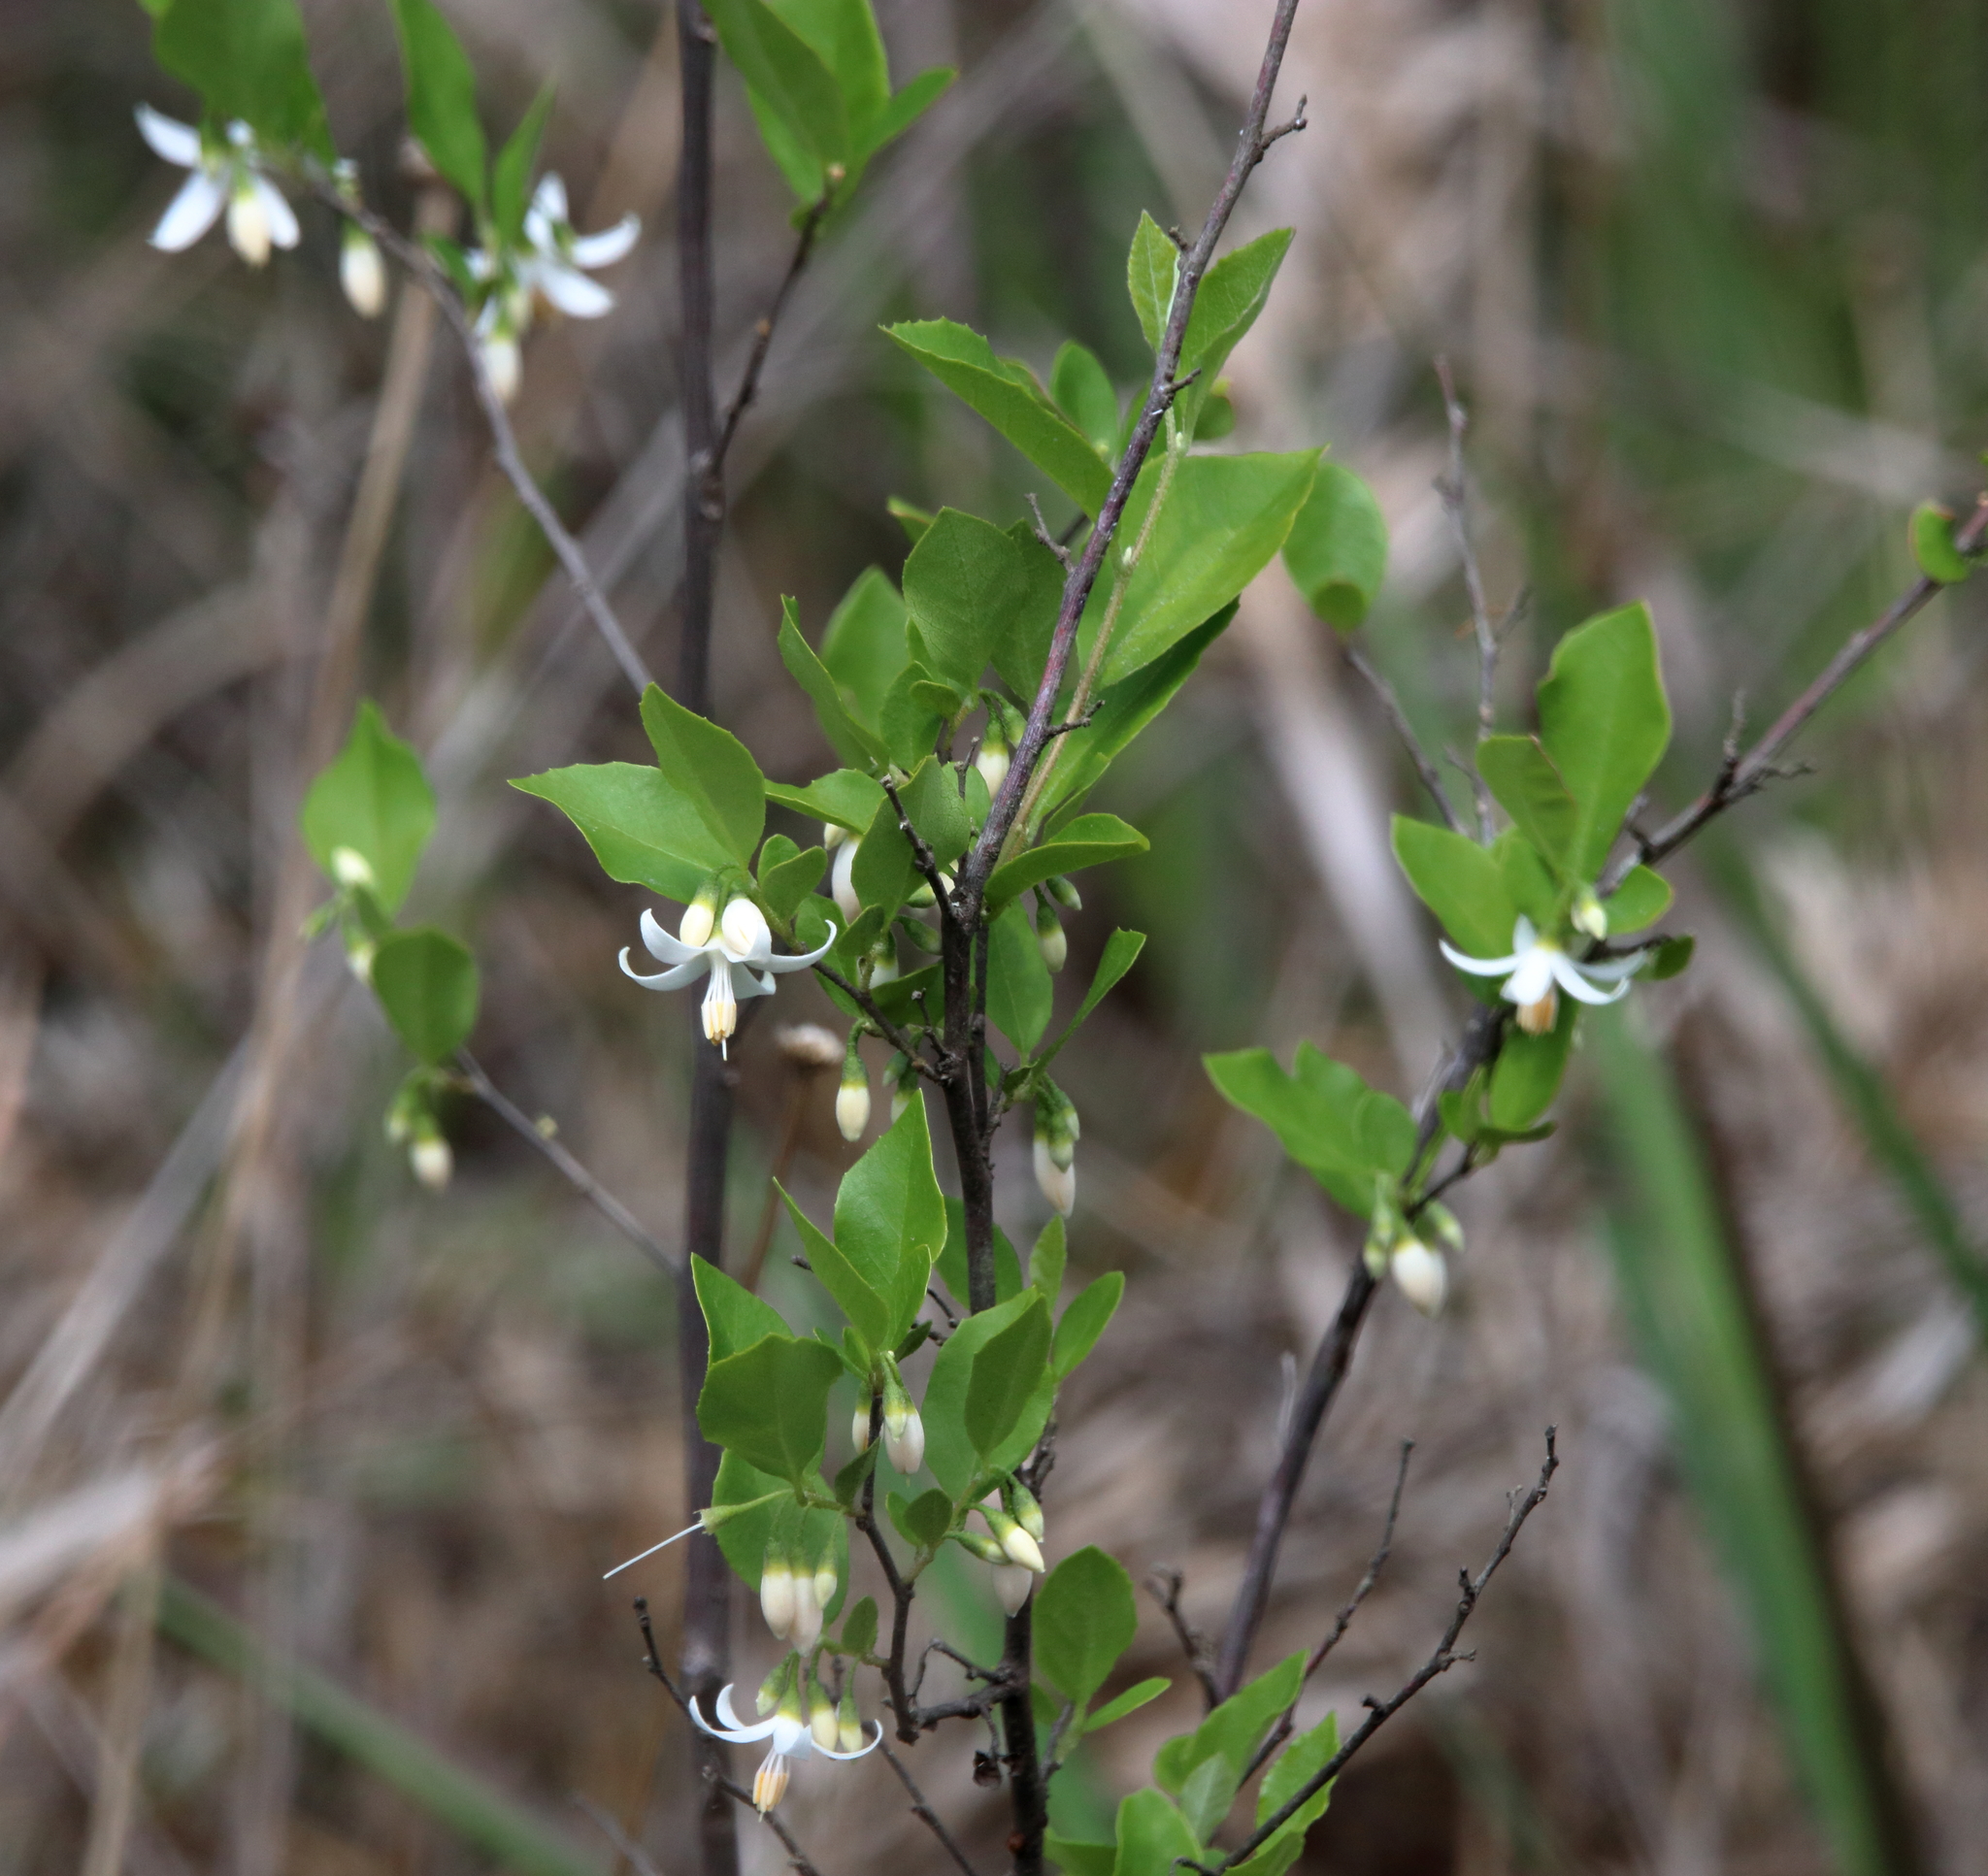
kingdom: Plantae
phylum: Tracheophyta
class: Magnoliopsida
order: Ericales
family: Styracaceae
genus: Styrax
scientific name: Styrax americanus
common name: American snowbell
